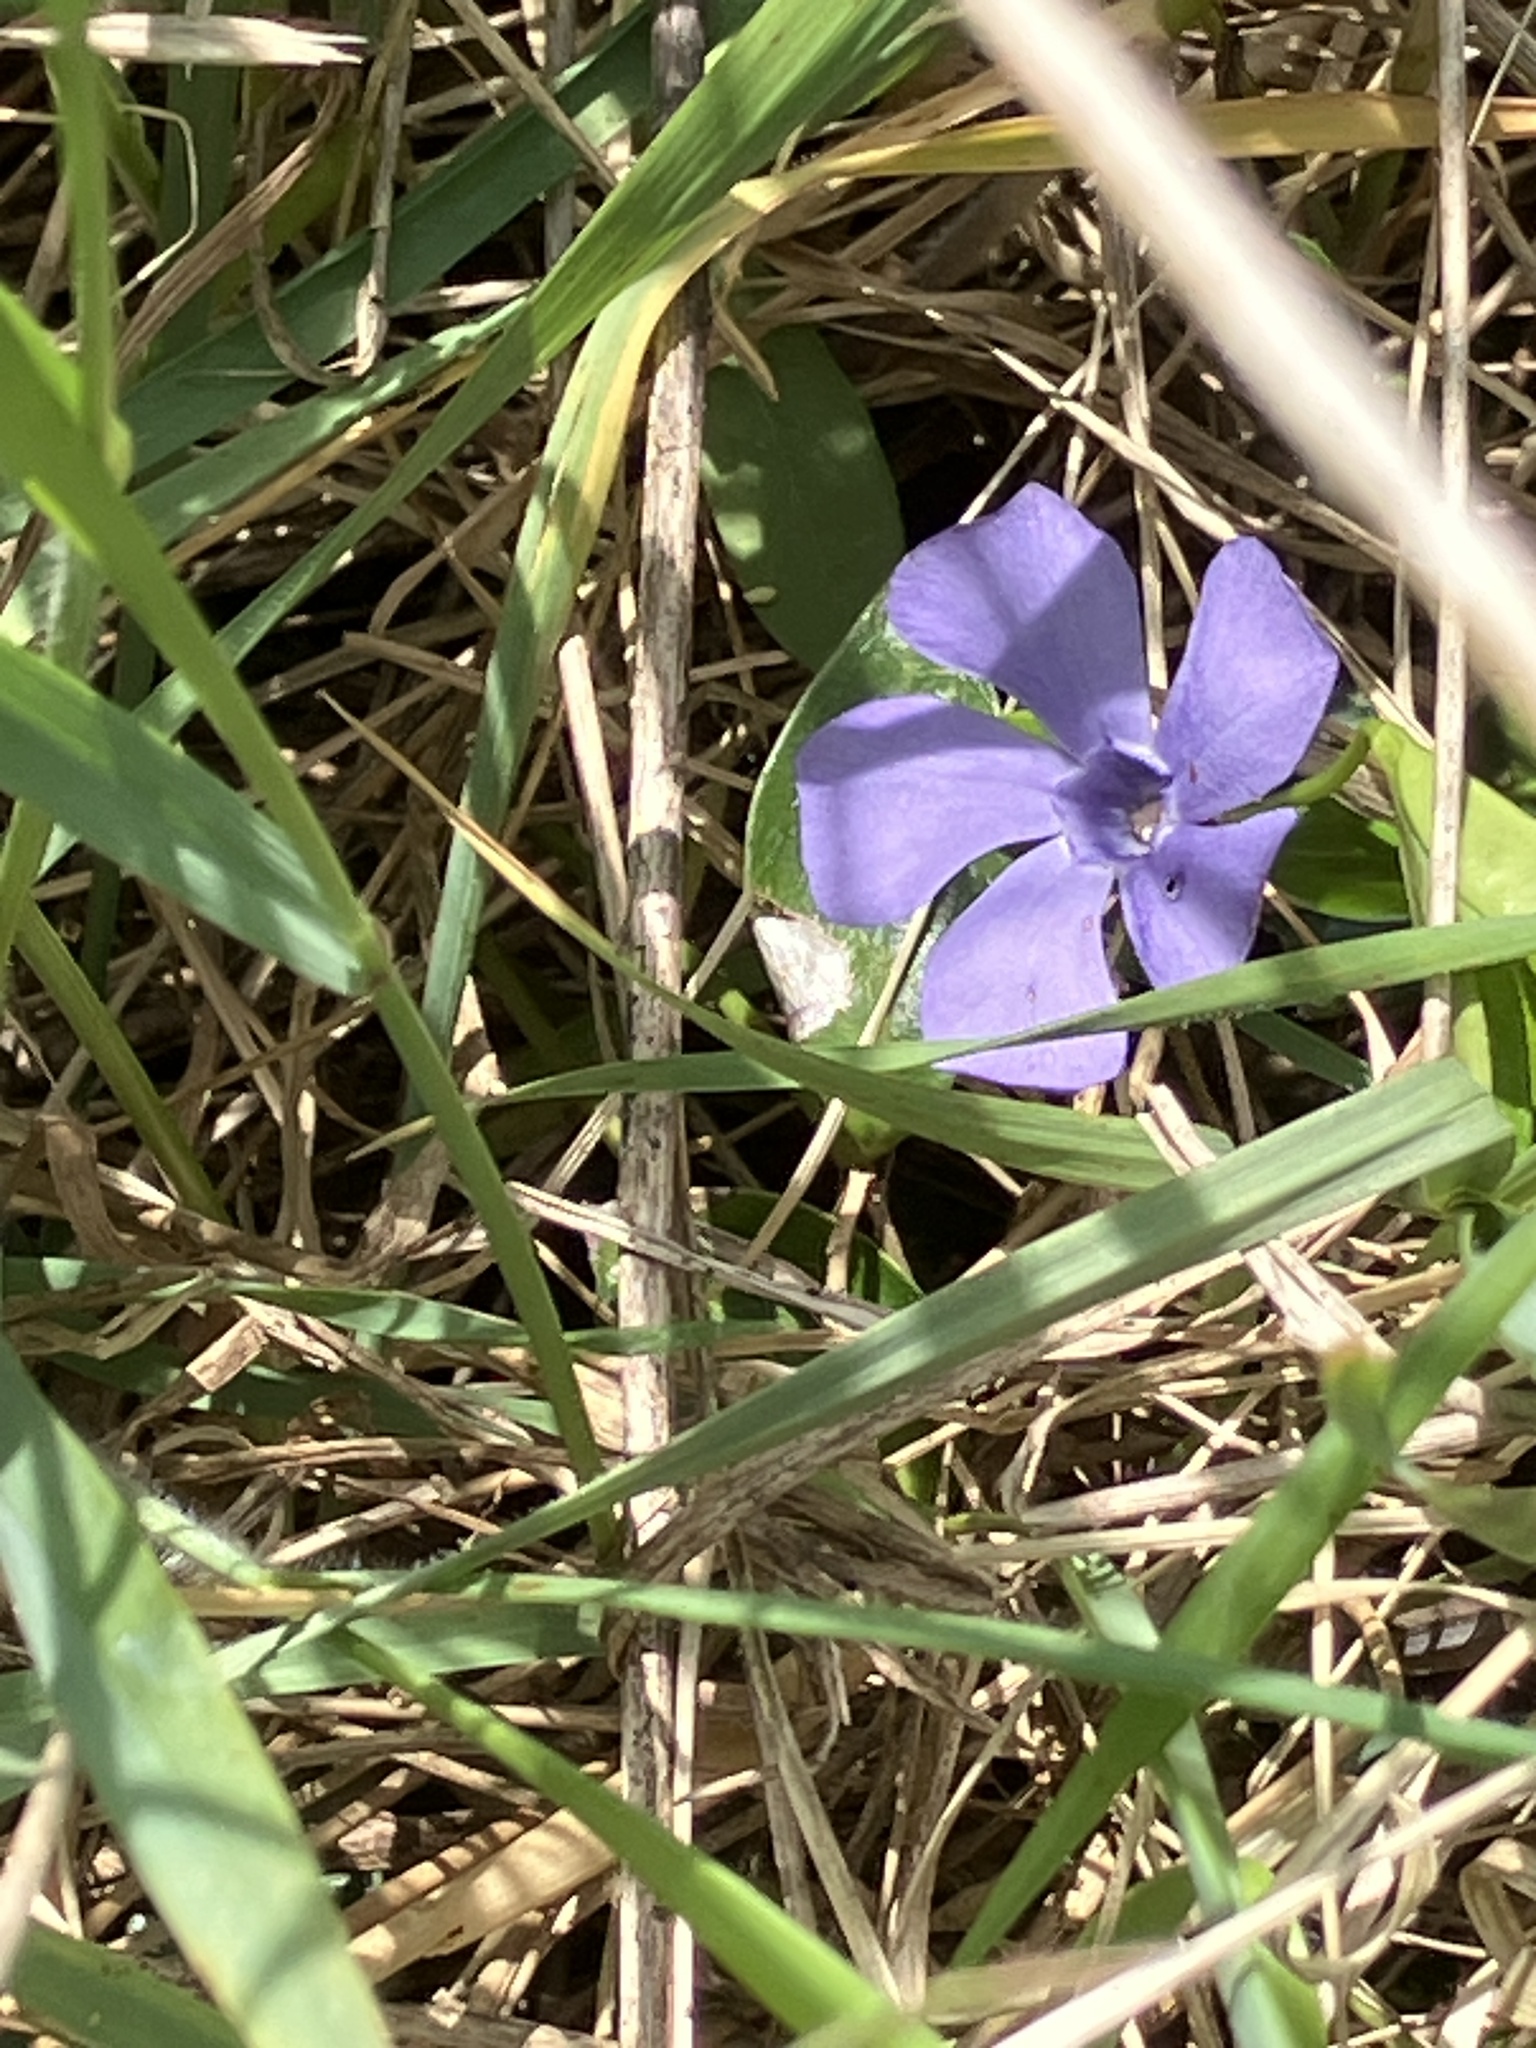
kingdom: Plantae
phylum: Tracheophyta
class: Magnoliopsida
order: Gentianales
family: Apocynaceae
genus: Vinca
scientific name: Vinca minor
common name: Lesser periwinkle
